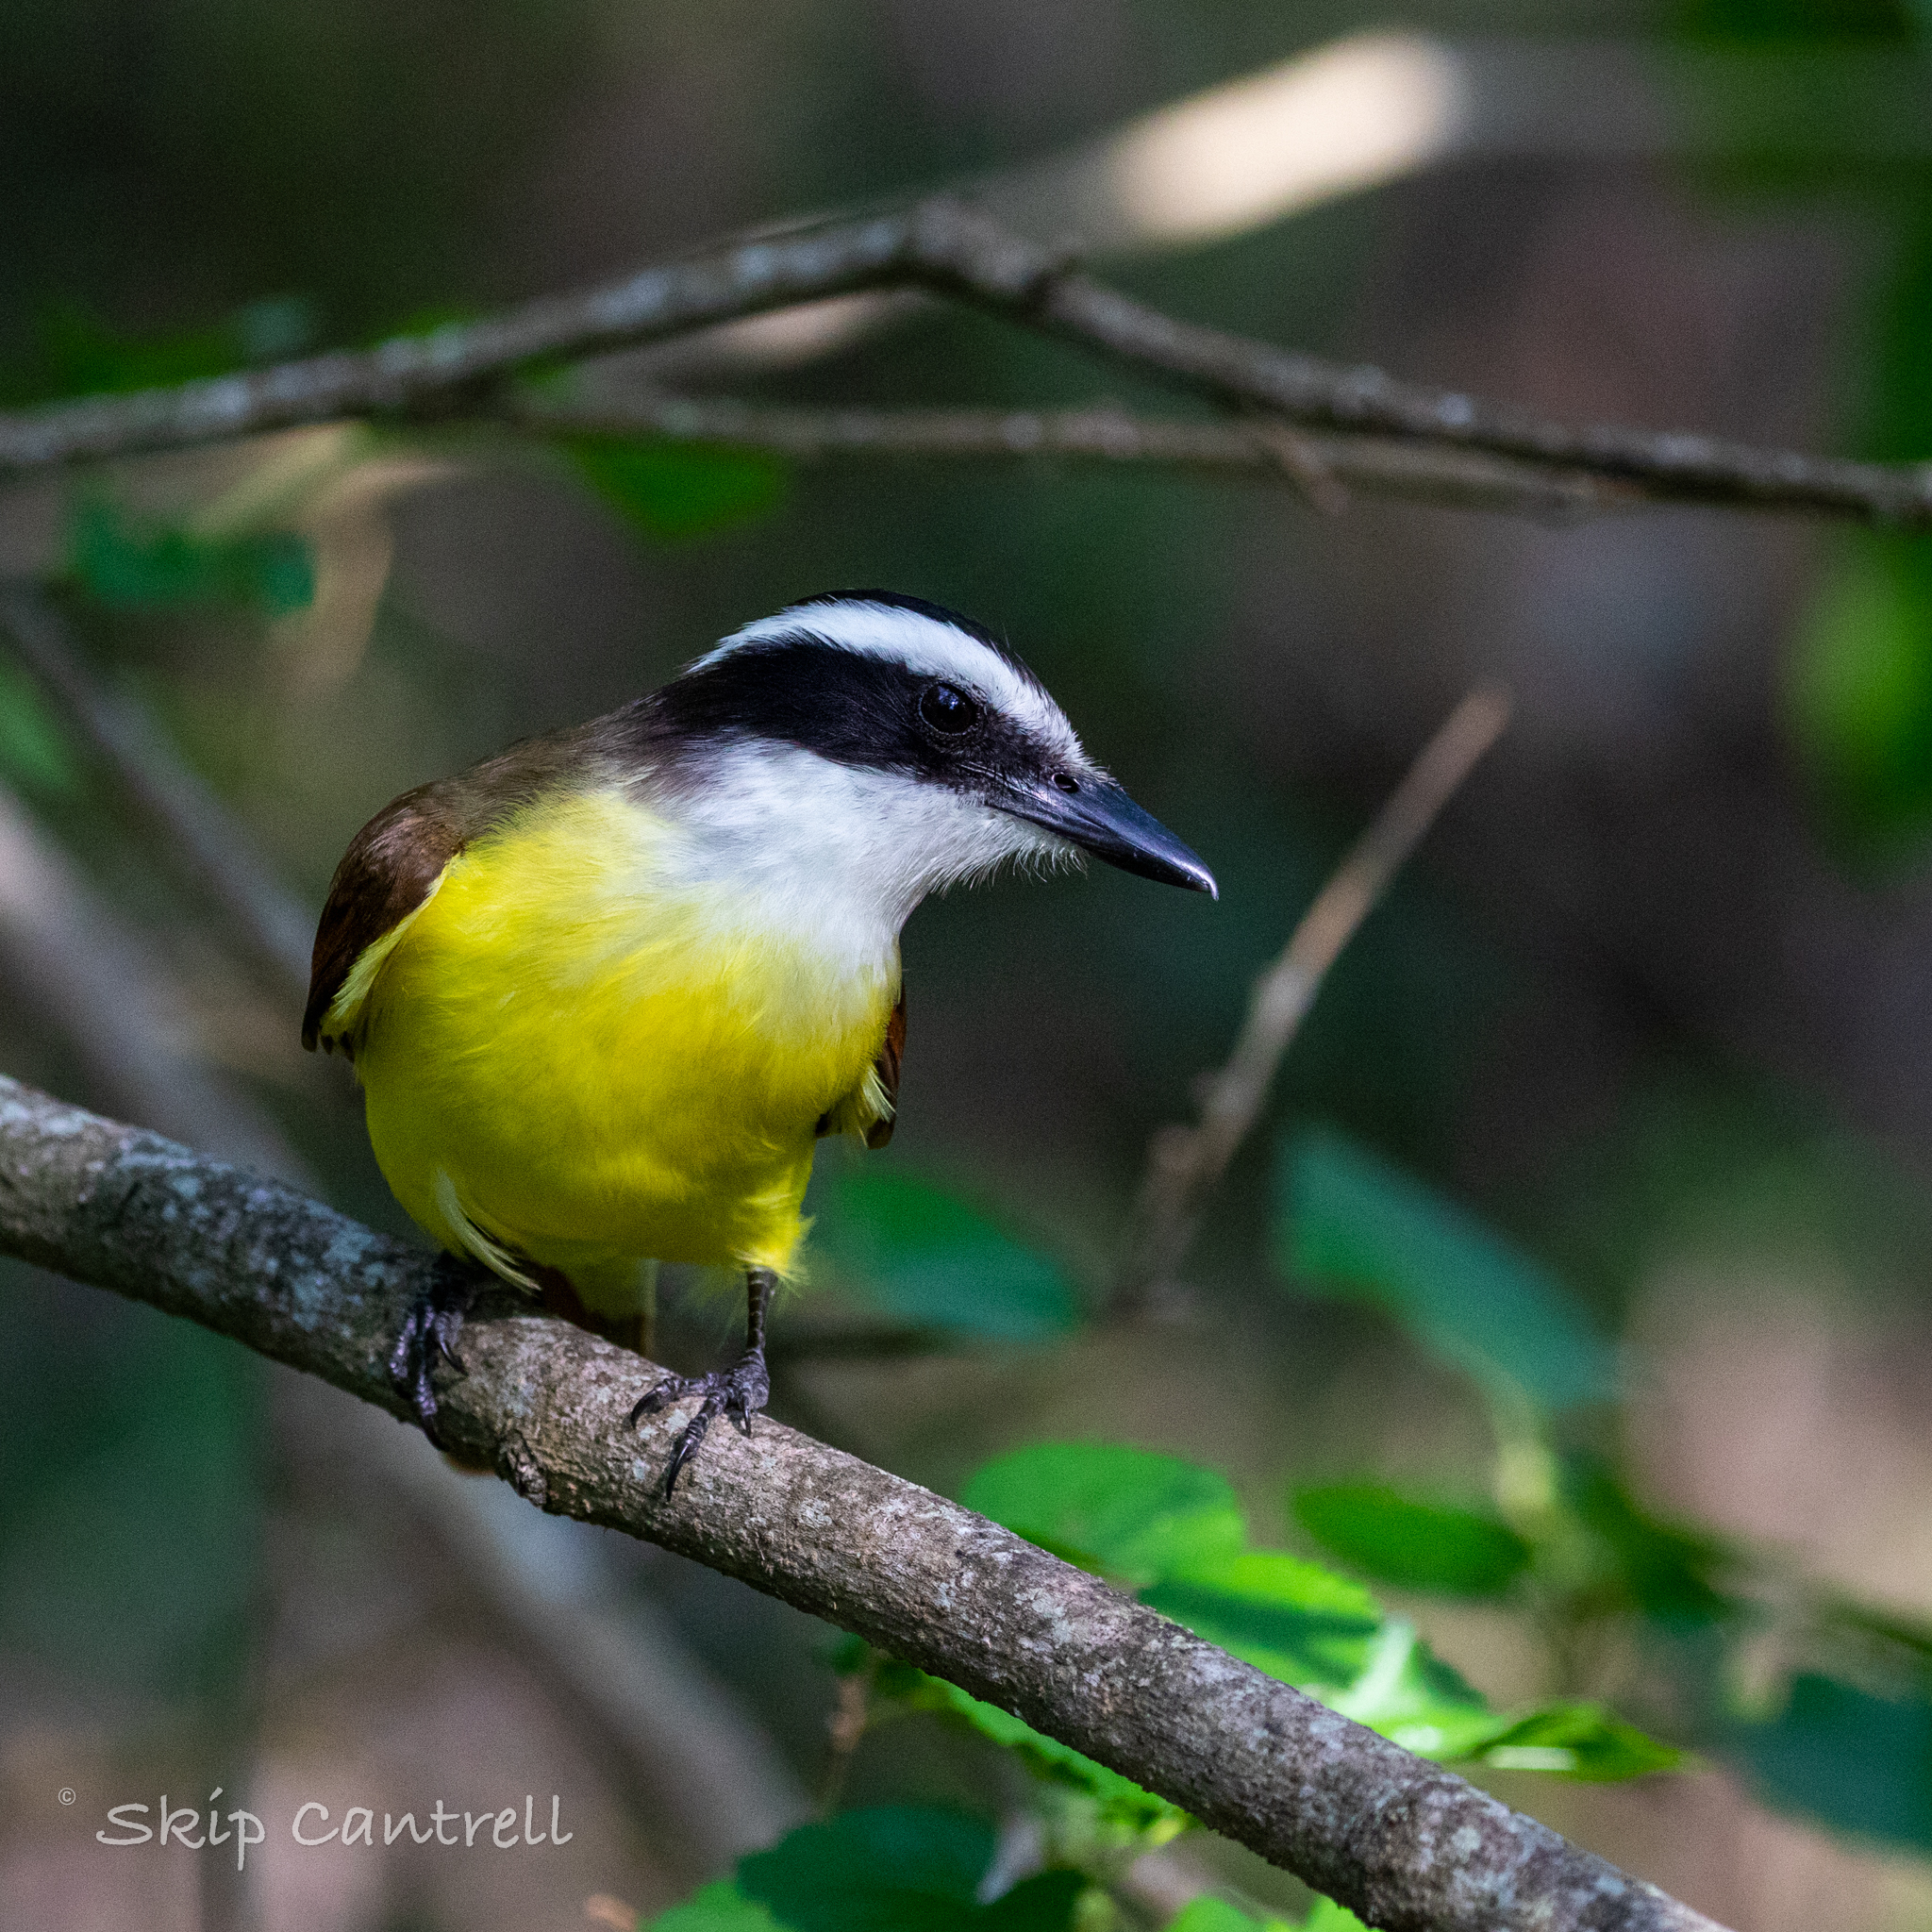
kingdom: Animalia
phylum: Chordata
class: Aves
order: Passeriformes
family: Tyrannidae
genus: Pitangus
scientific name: Pitangus sulphuratus
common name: Great kiskadee
